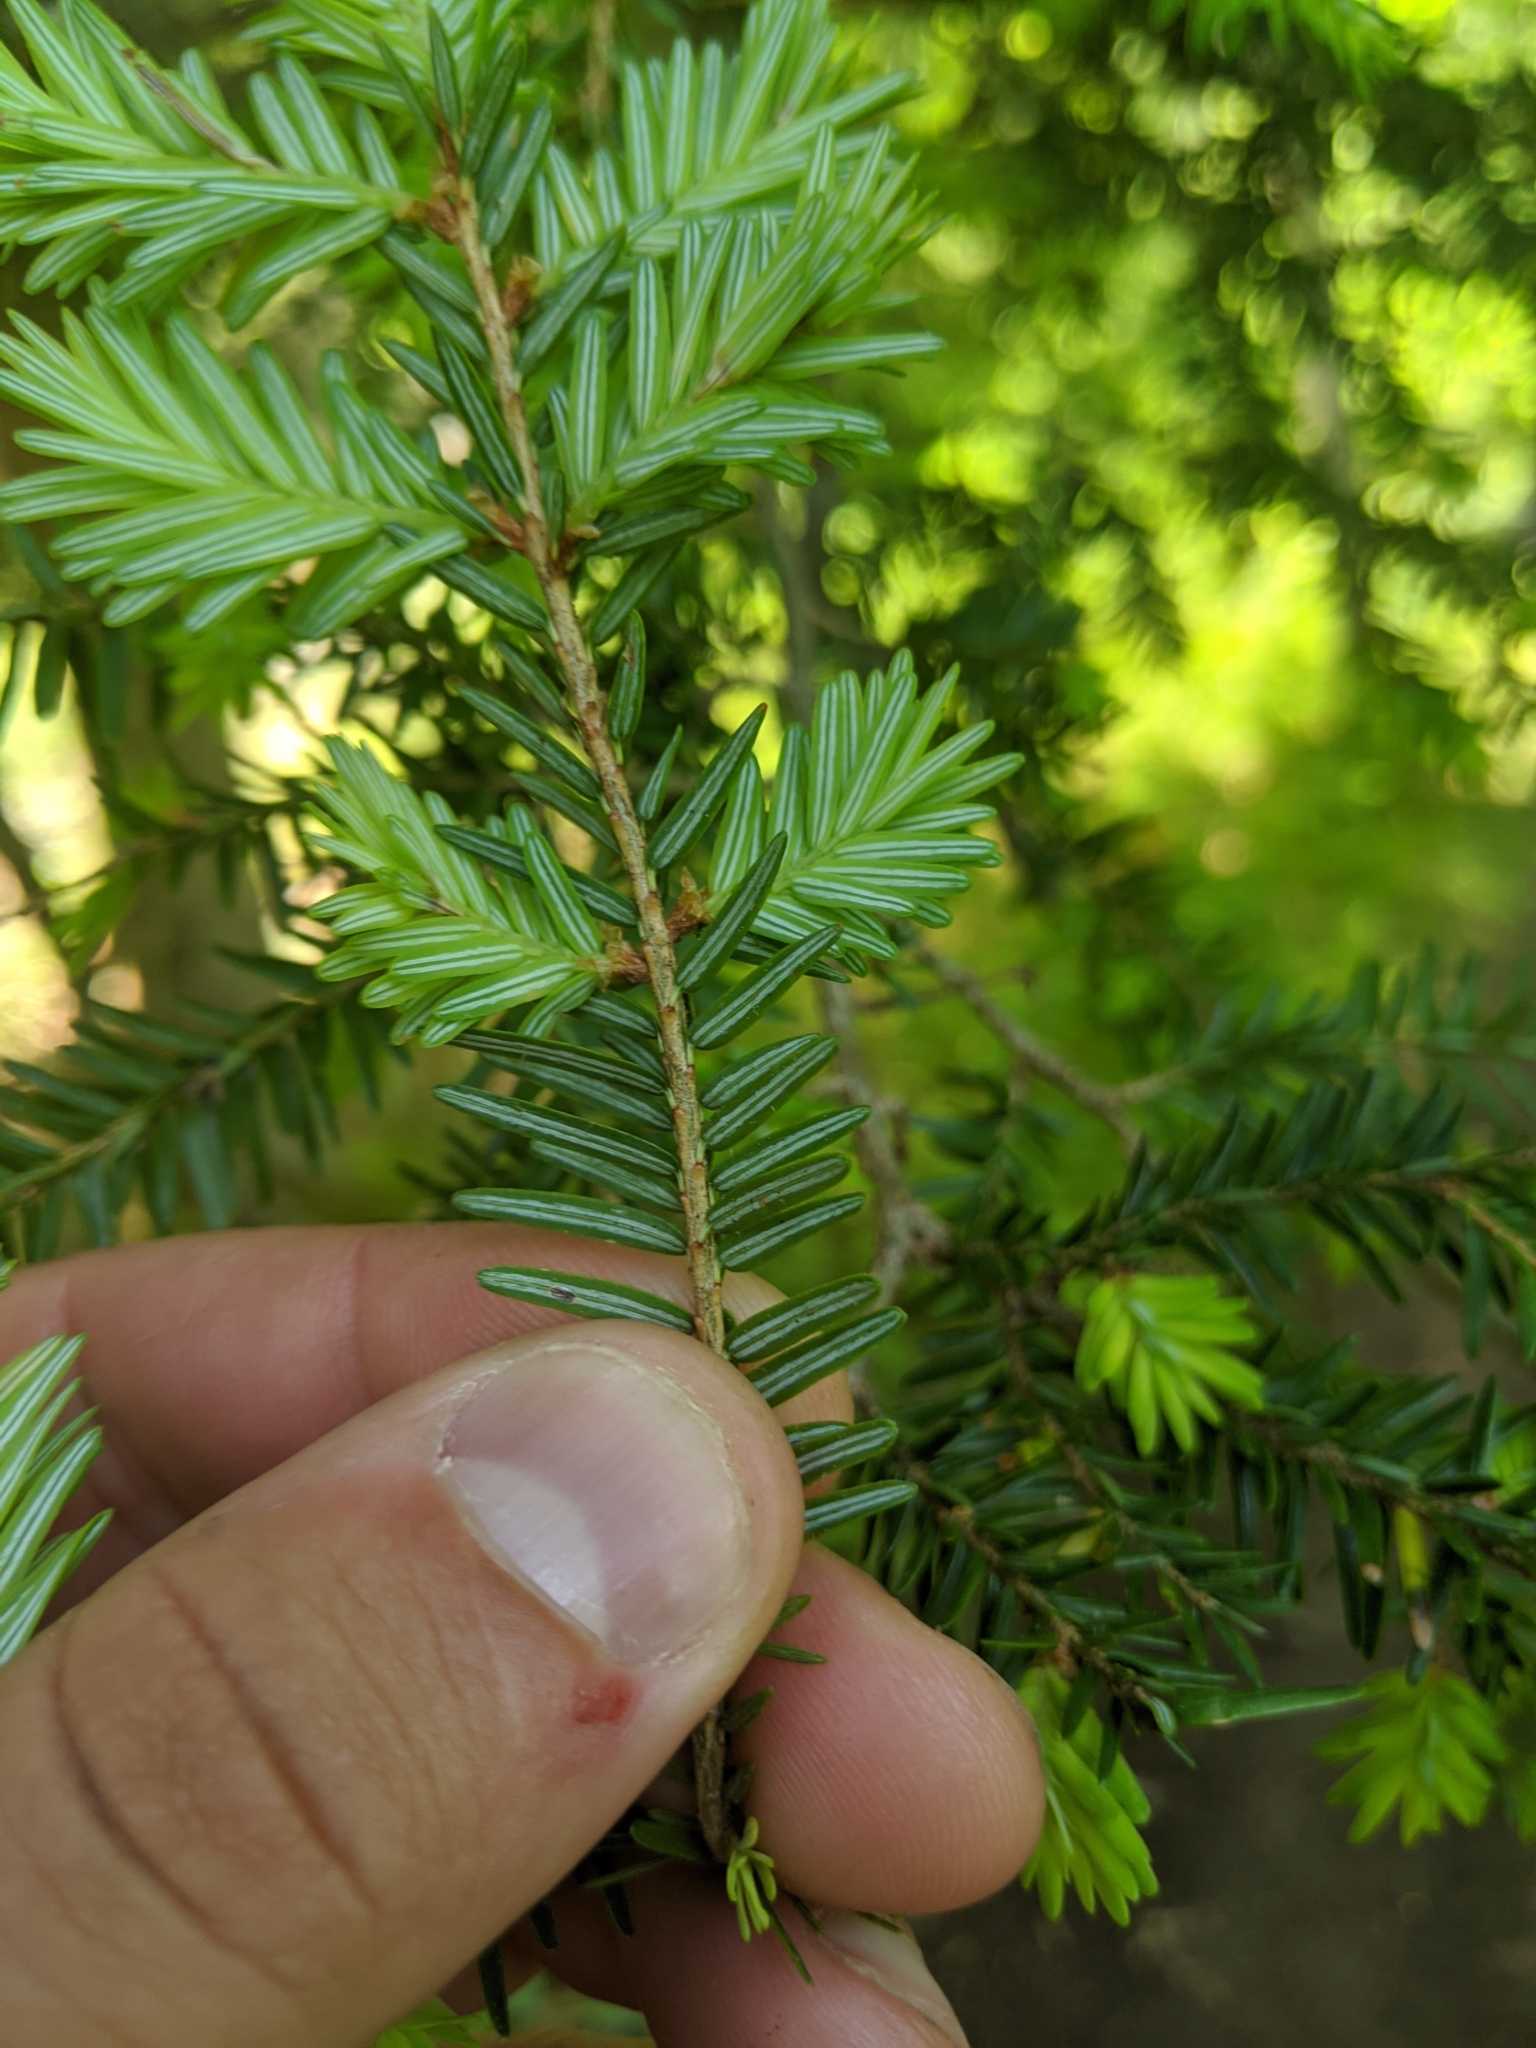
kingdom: Plantae
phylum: Tracheophyta
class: Pinopsida
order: Pinales
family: Pinaceae
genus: Tsuga
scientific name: Tsuga canadensis
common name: Eastern hemlock
